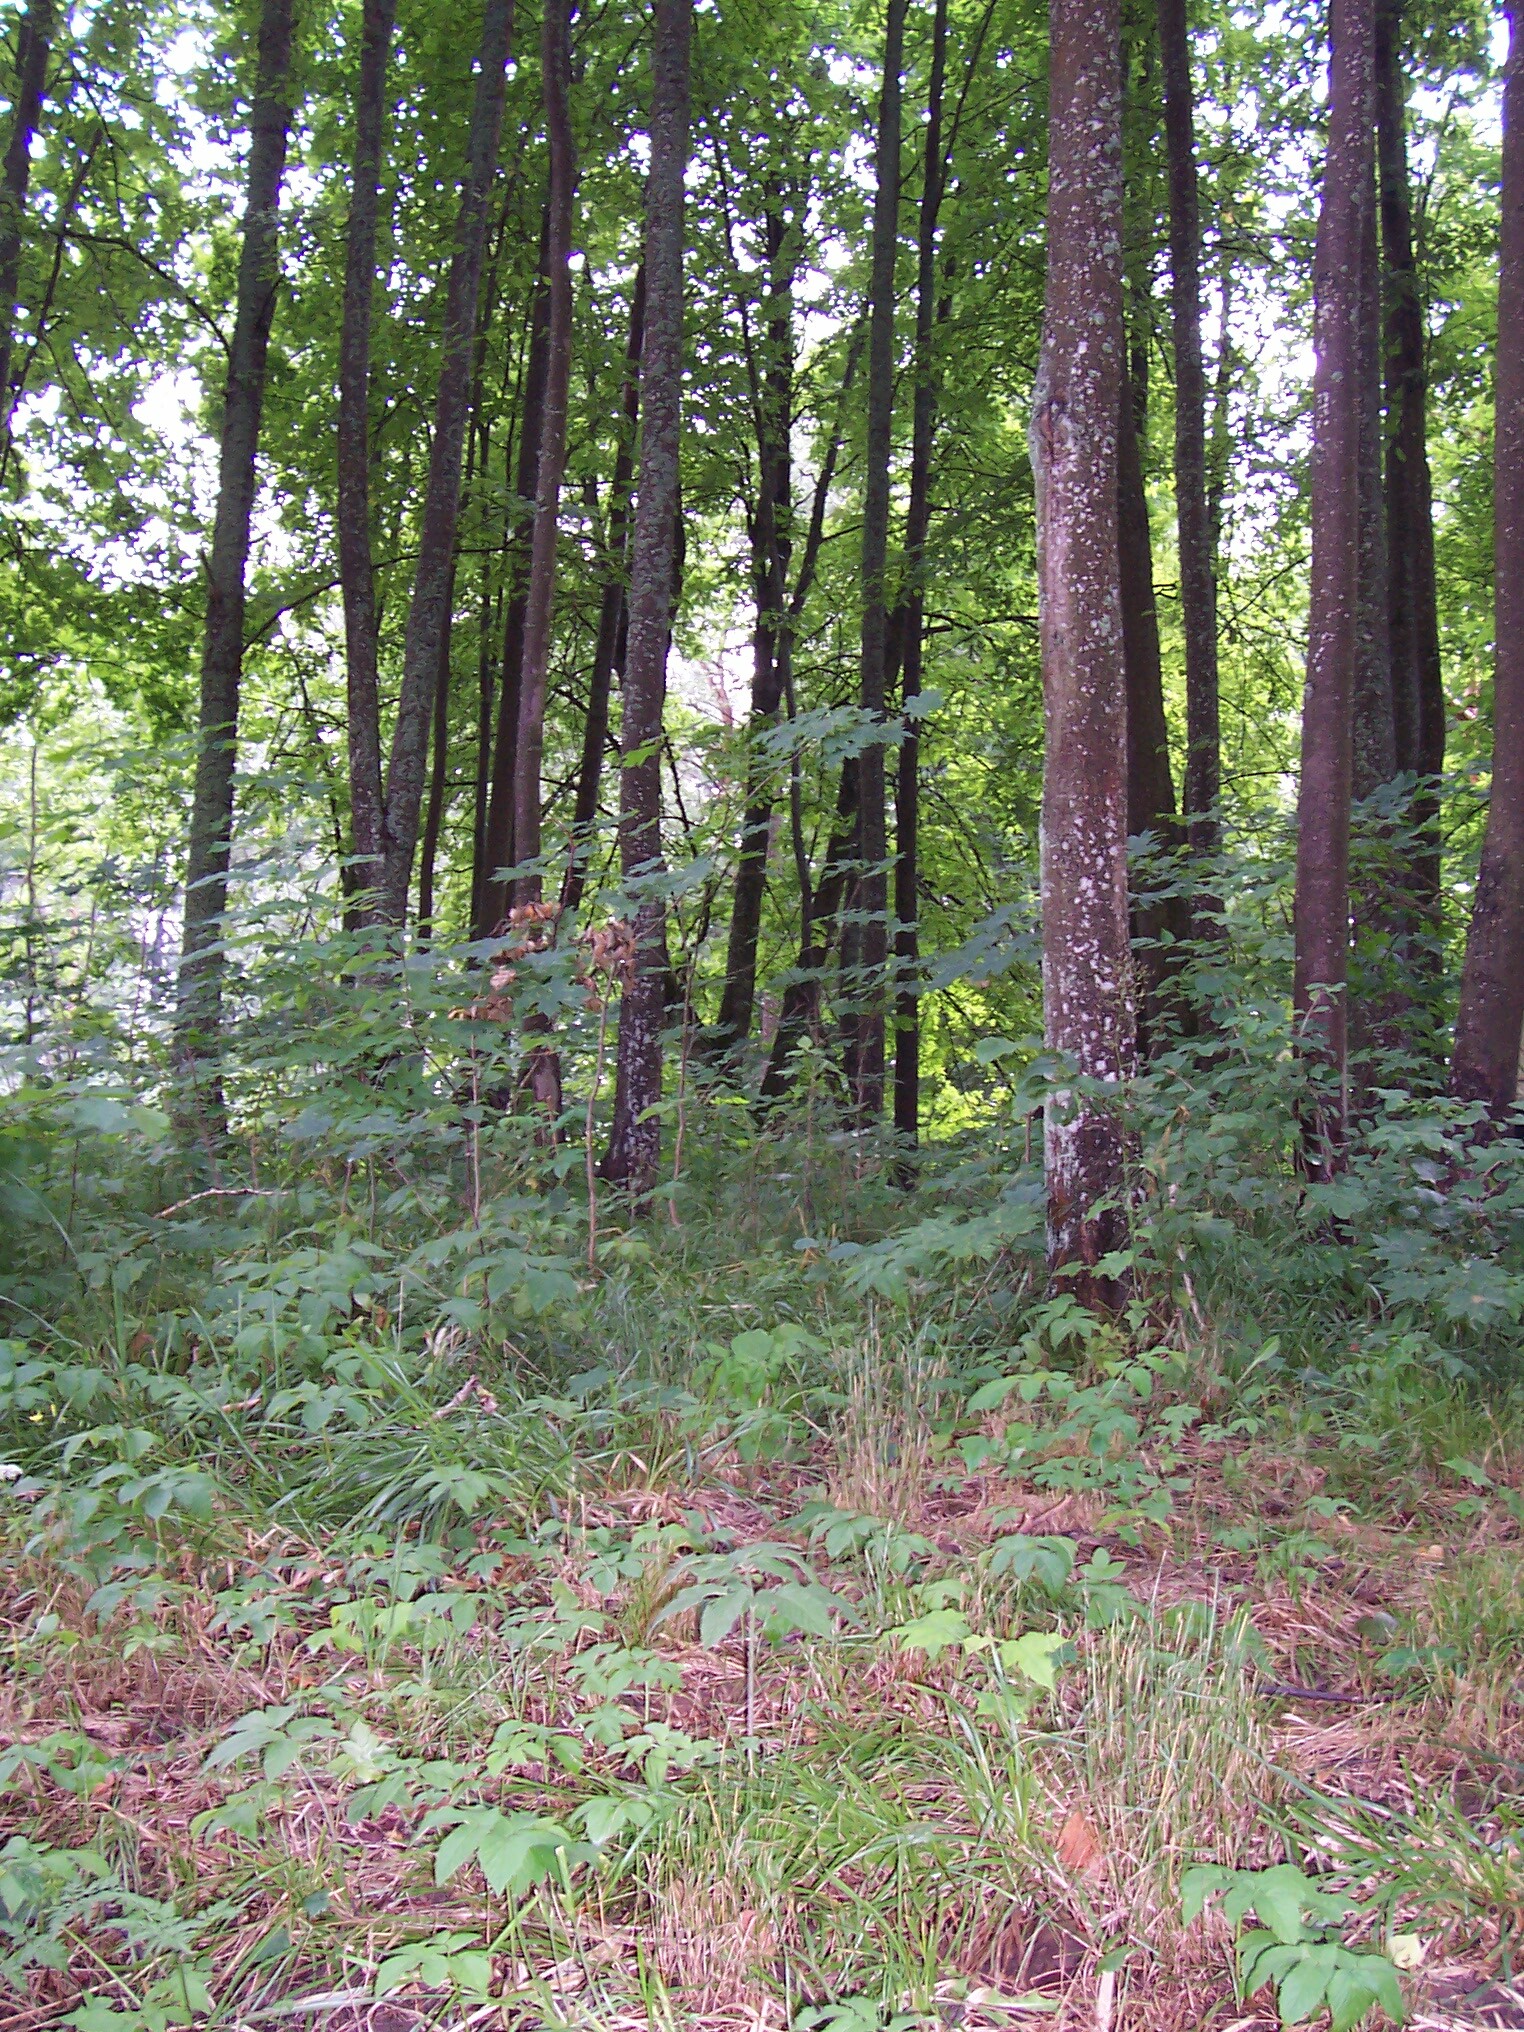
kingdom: Plantae
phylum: Tracheophyta
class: Liliopsida
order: Poales
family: Poaceae
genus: Poa
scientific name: Poa chaixii
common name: Broad-leaved meadow-grass
